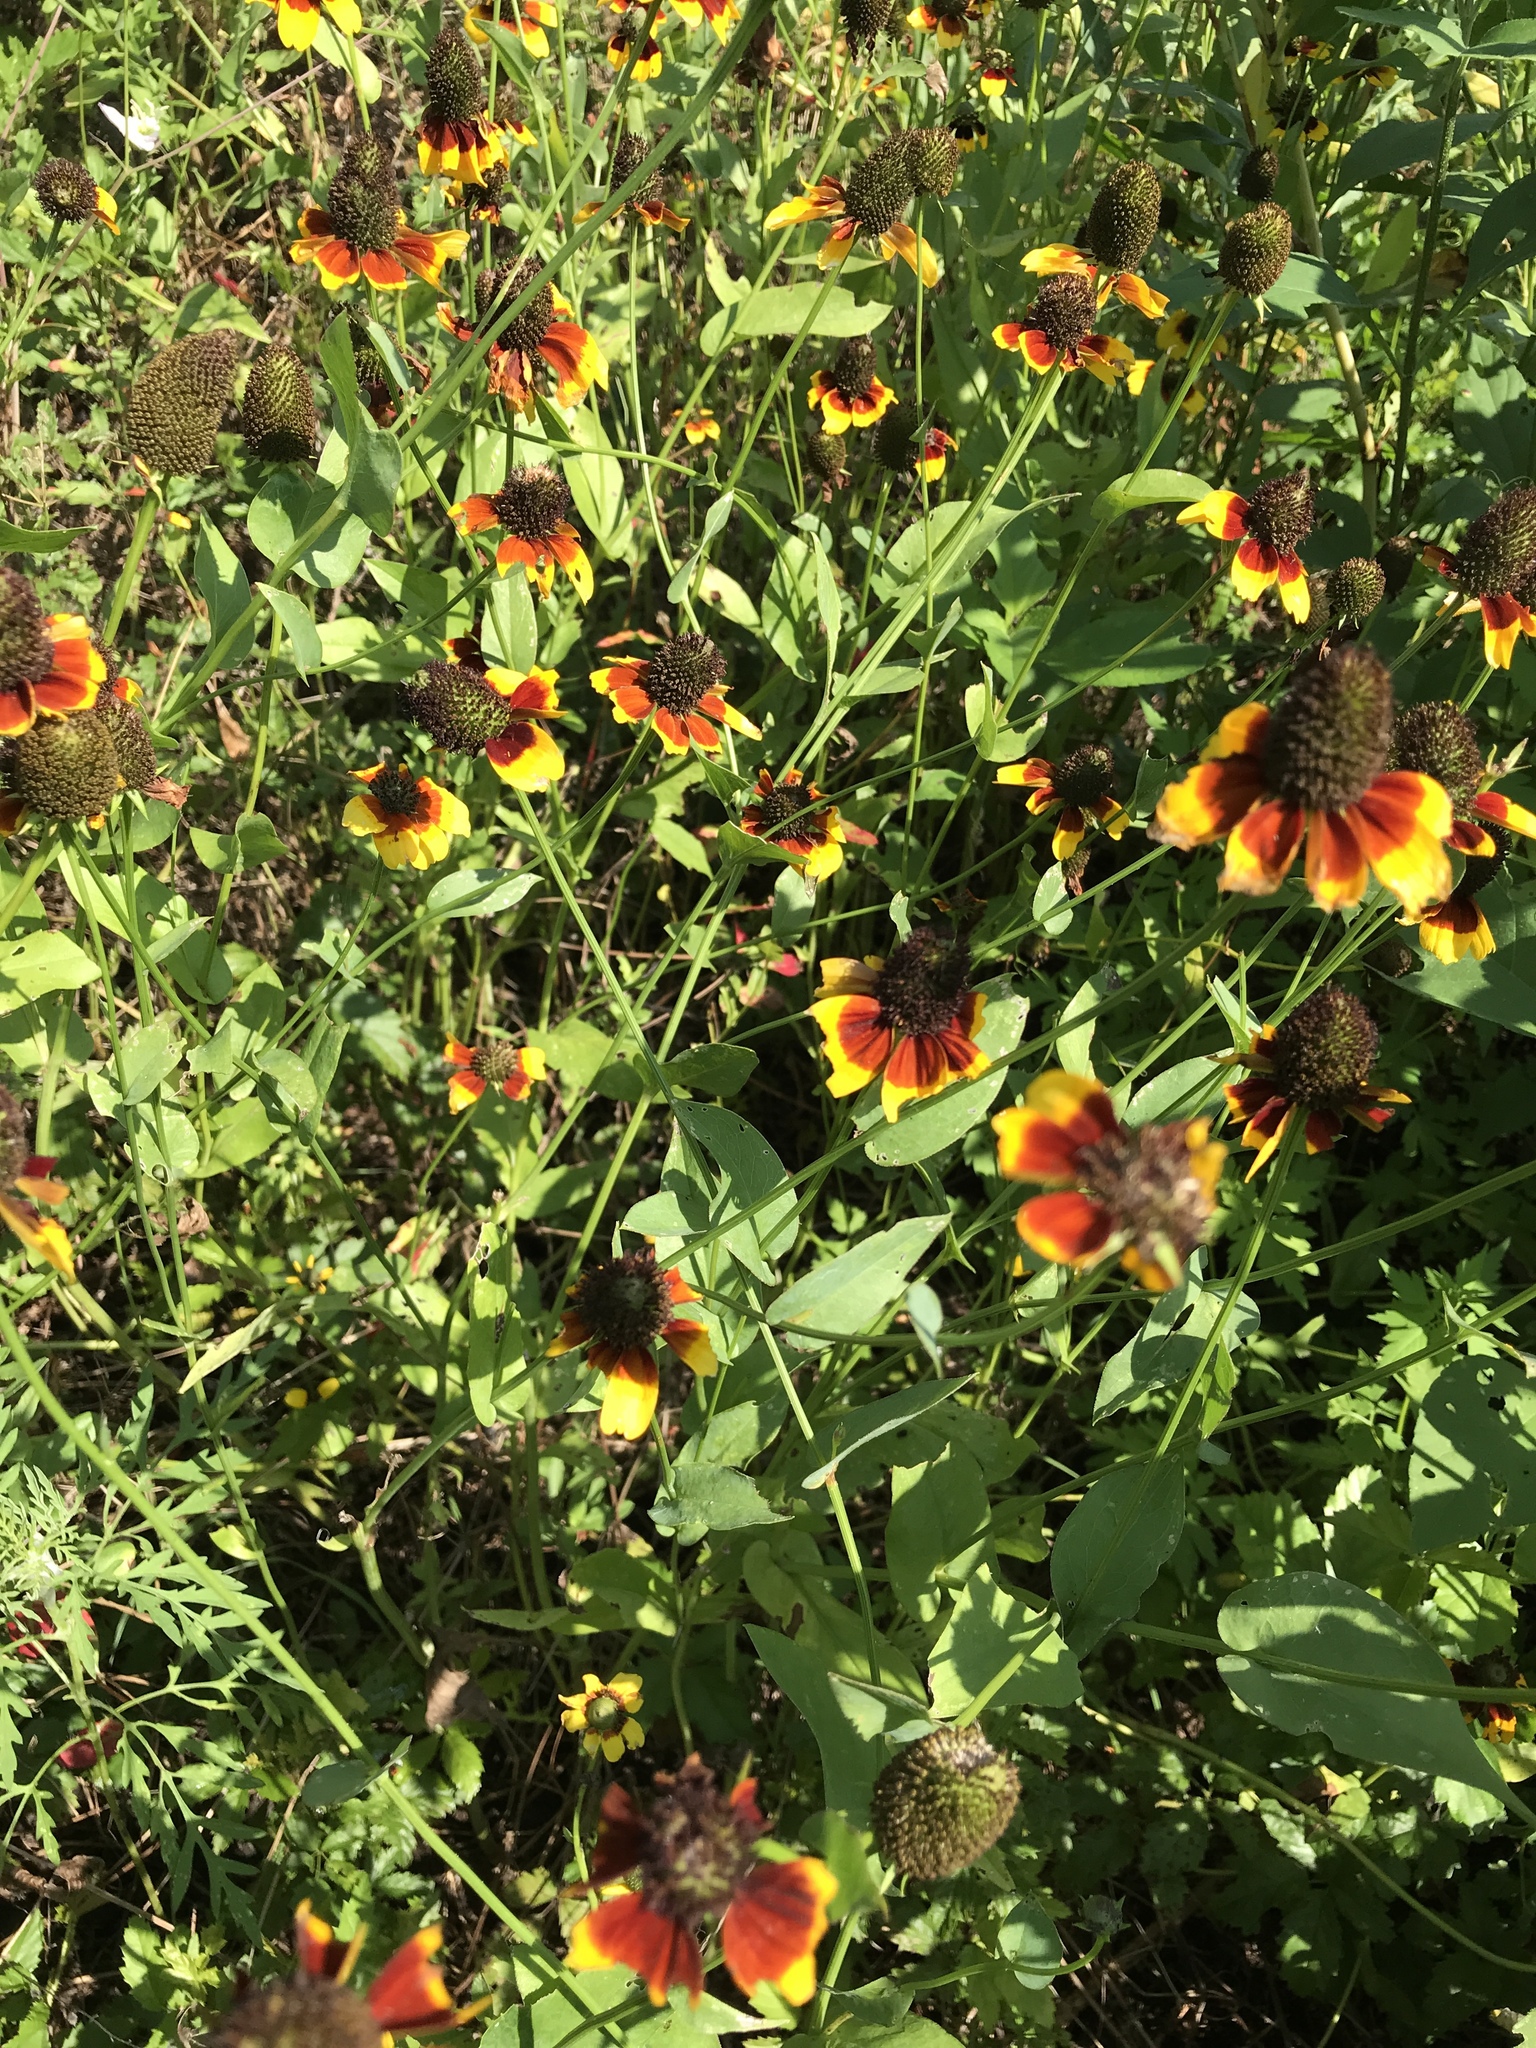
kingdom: Plantae
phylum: Tracheophyta
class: Magnoliopsida
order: Asterales
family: Asteraceae
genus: Rudbeckia
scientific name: Rudbeckia amplexicaulis
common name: Clasping-leaf coneflower
